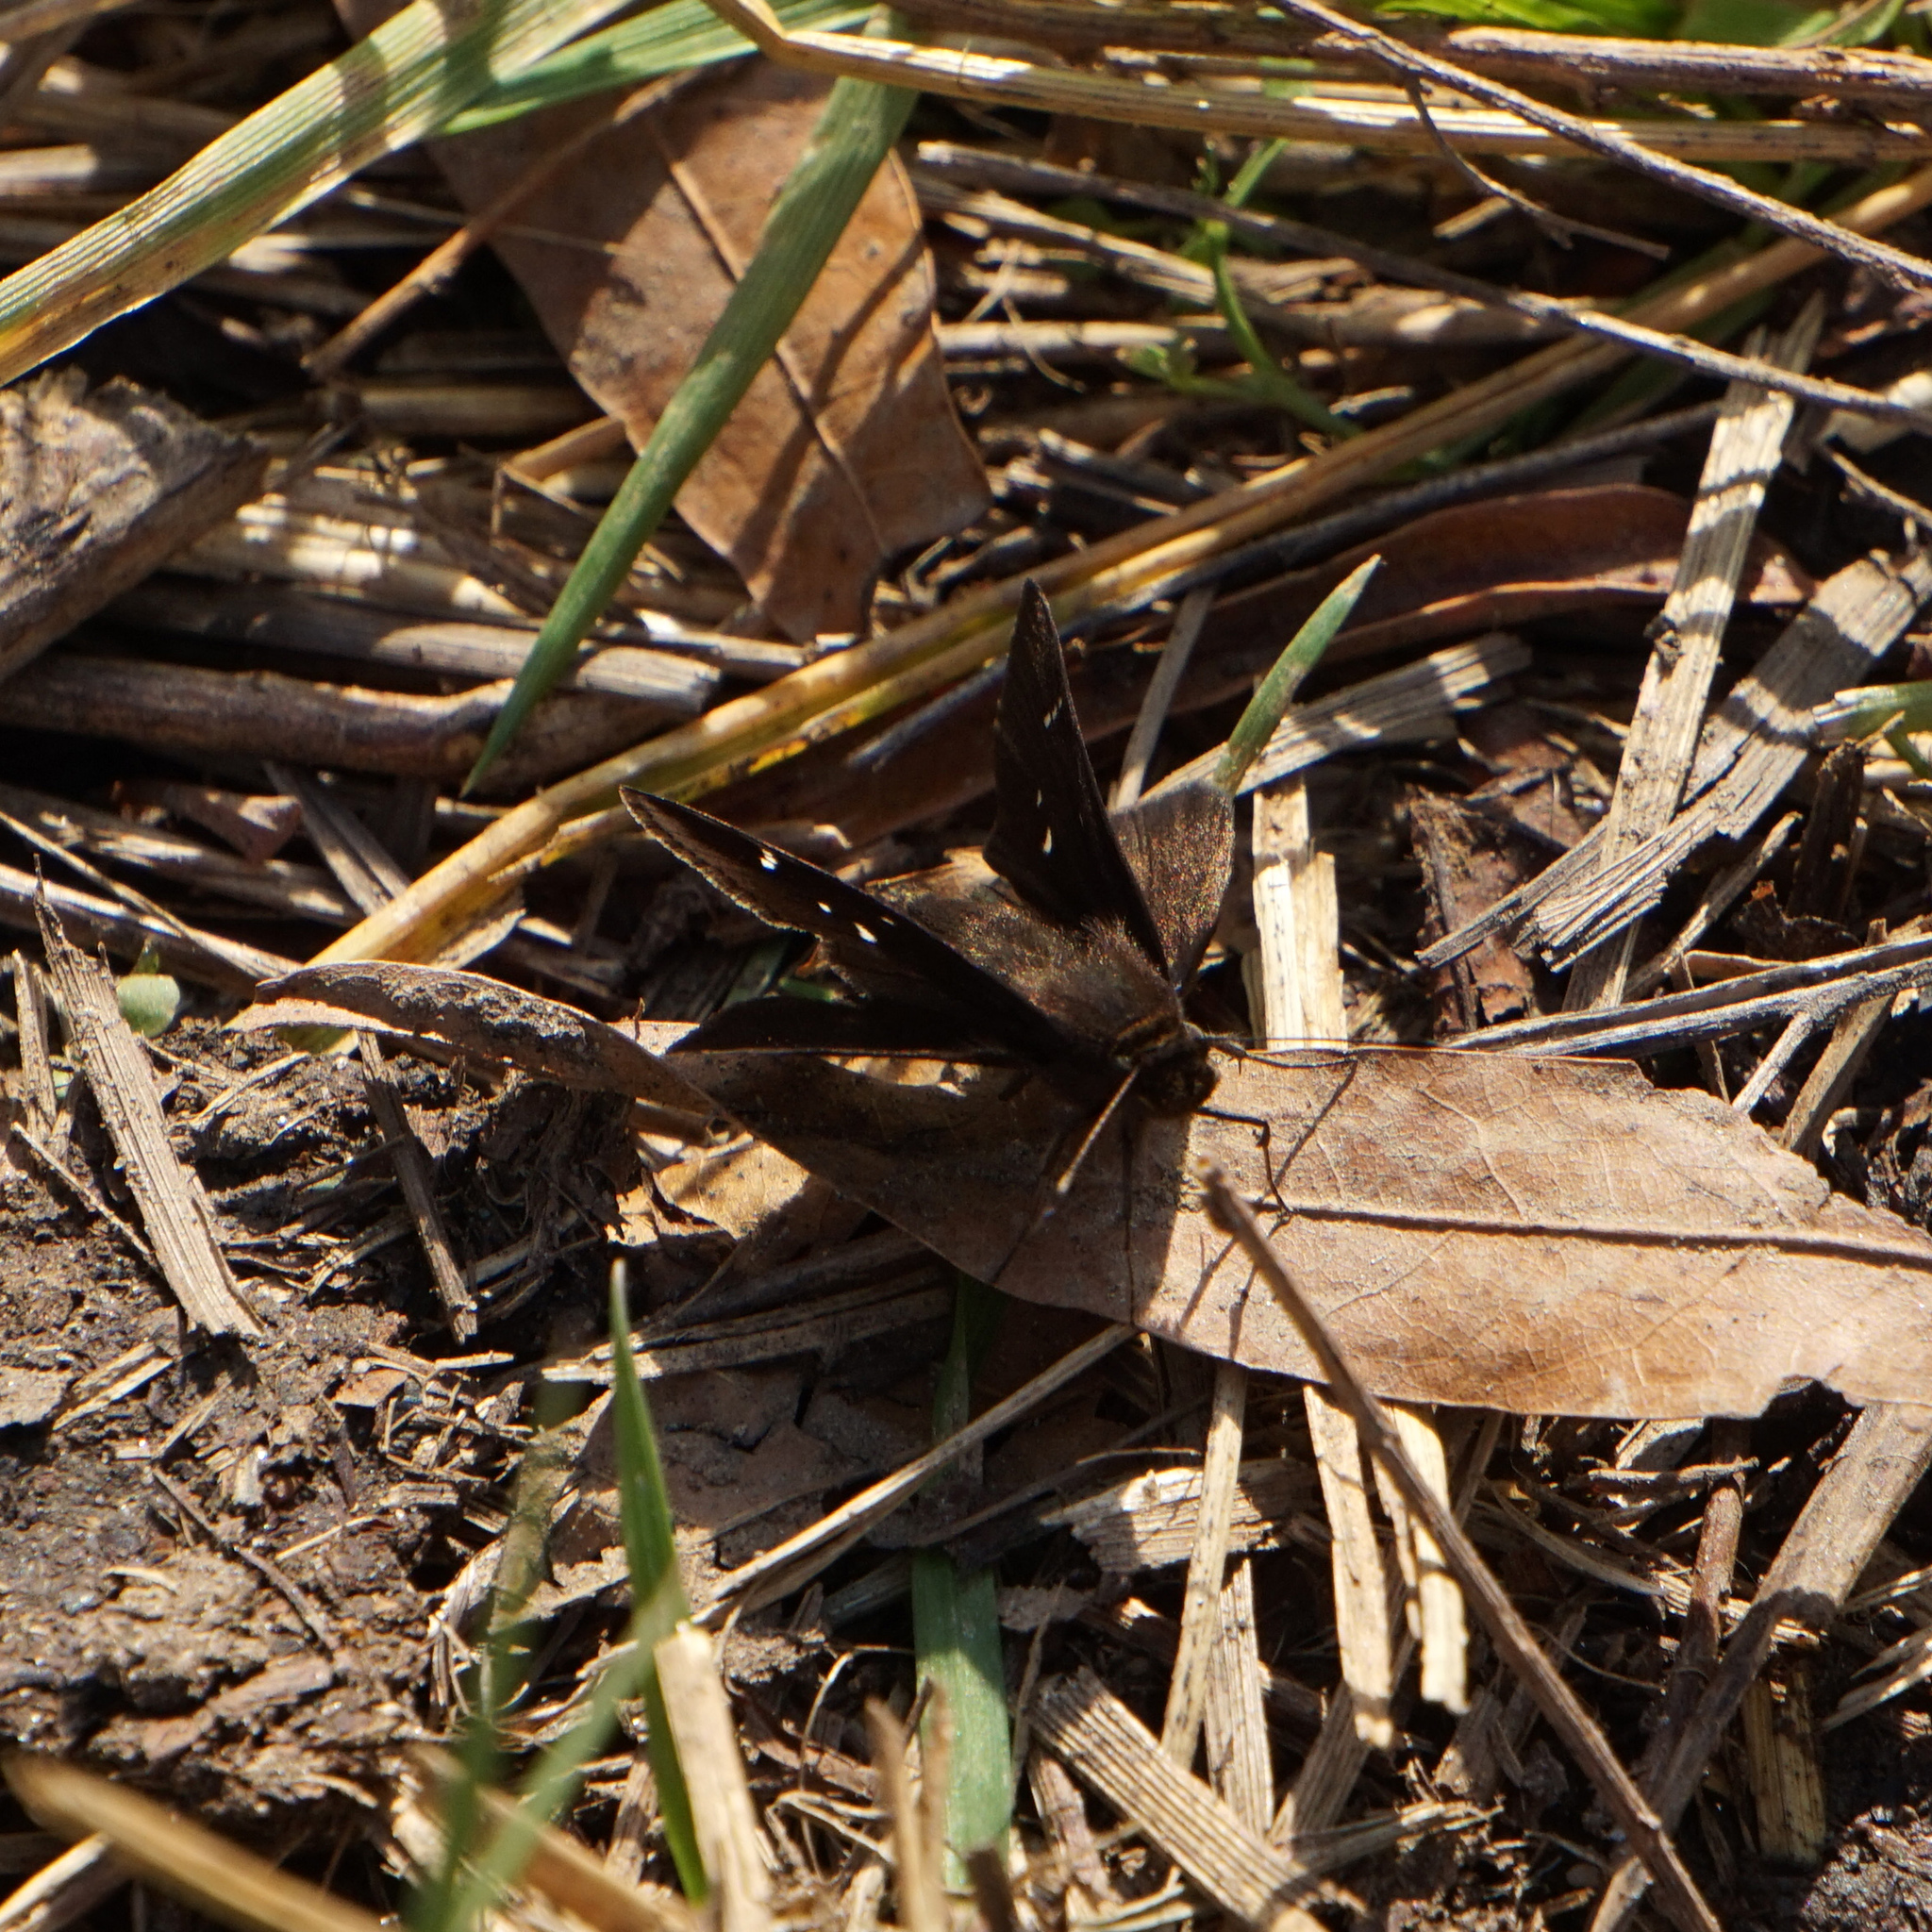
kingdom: Animalia
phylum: Arthropoda
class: Insecta
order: Lepidoptera
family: Hesperiidae
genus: Lerema
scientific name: Lerema accius
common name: Clouded skipper
